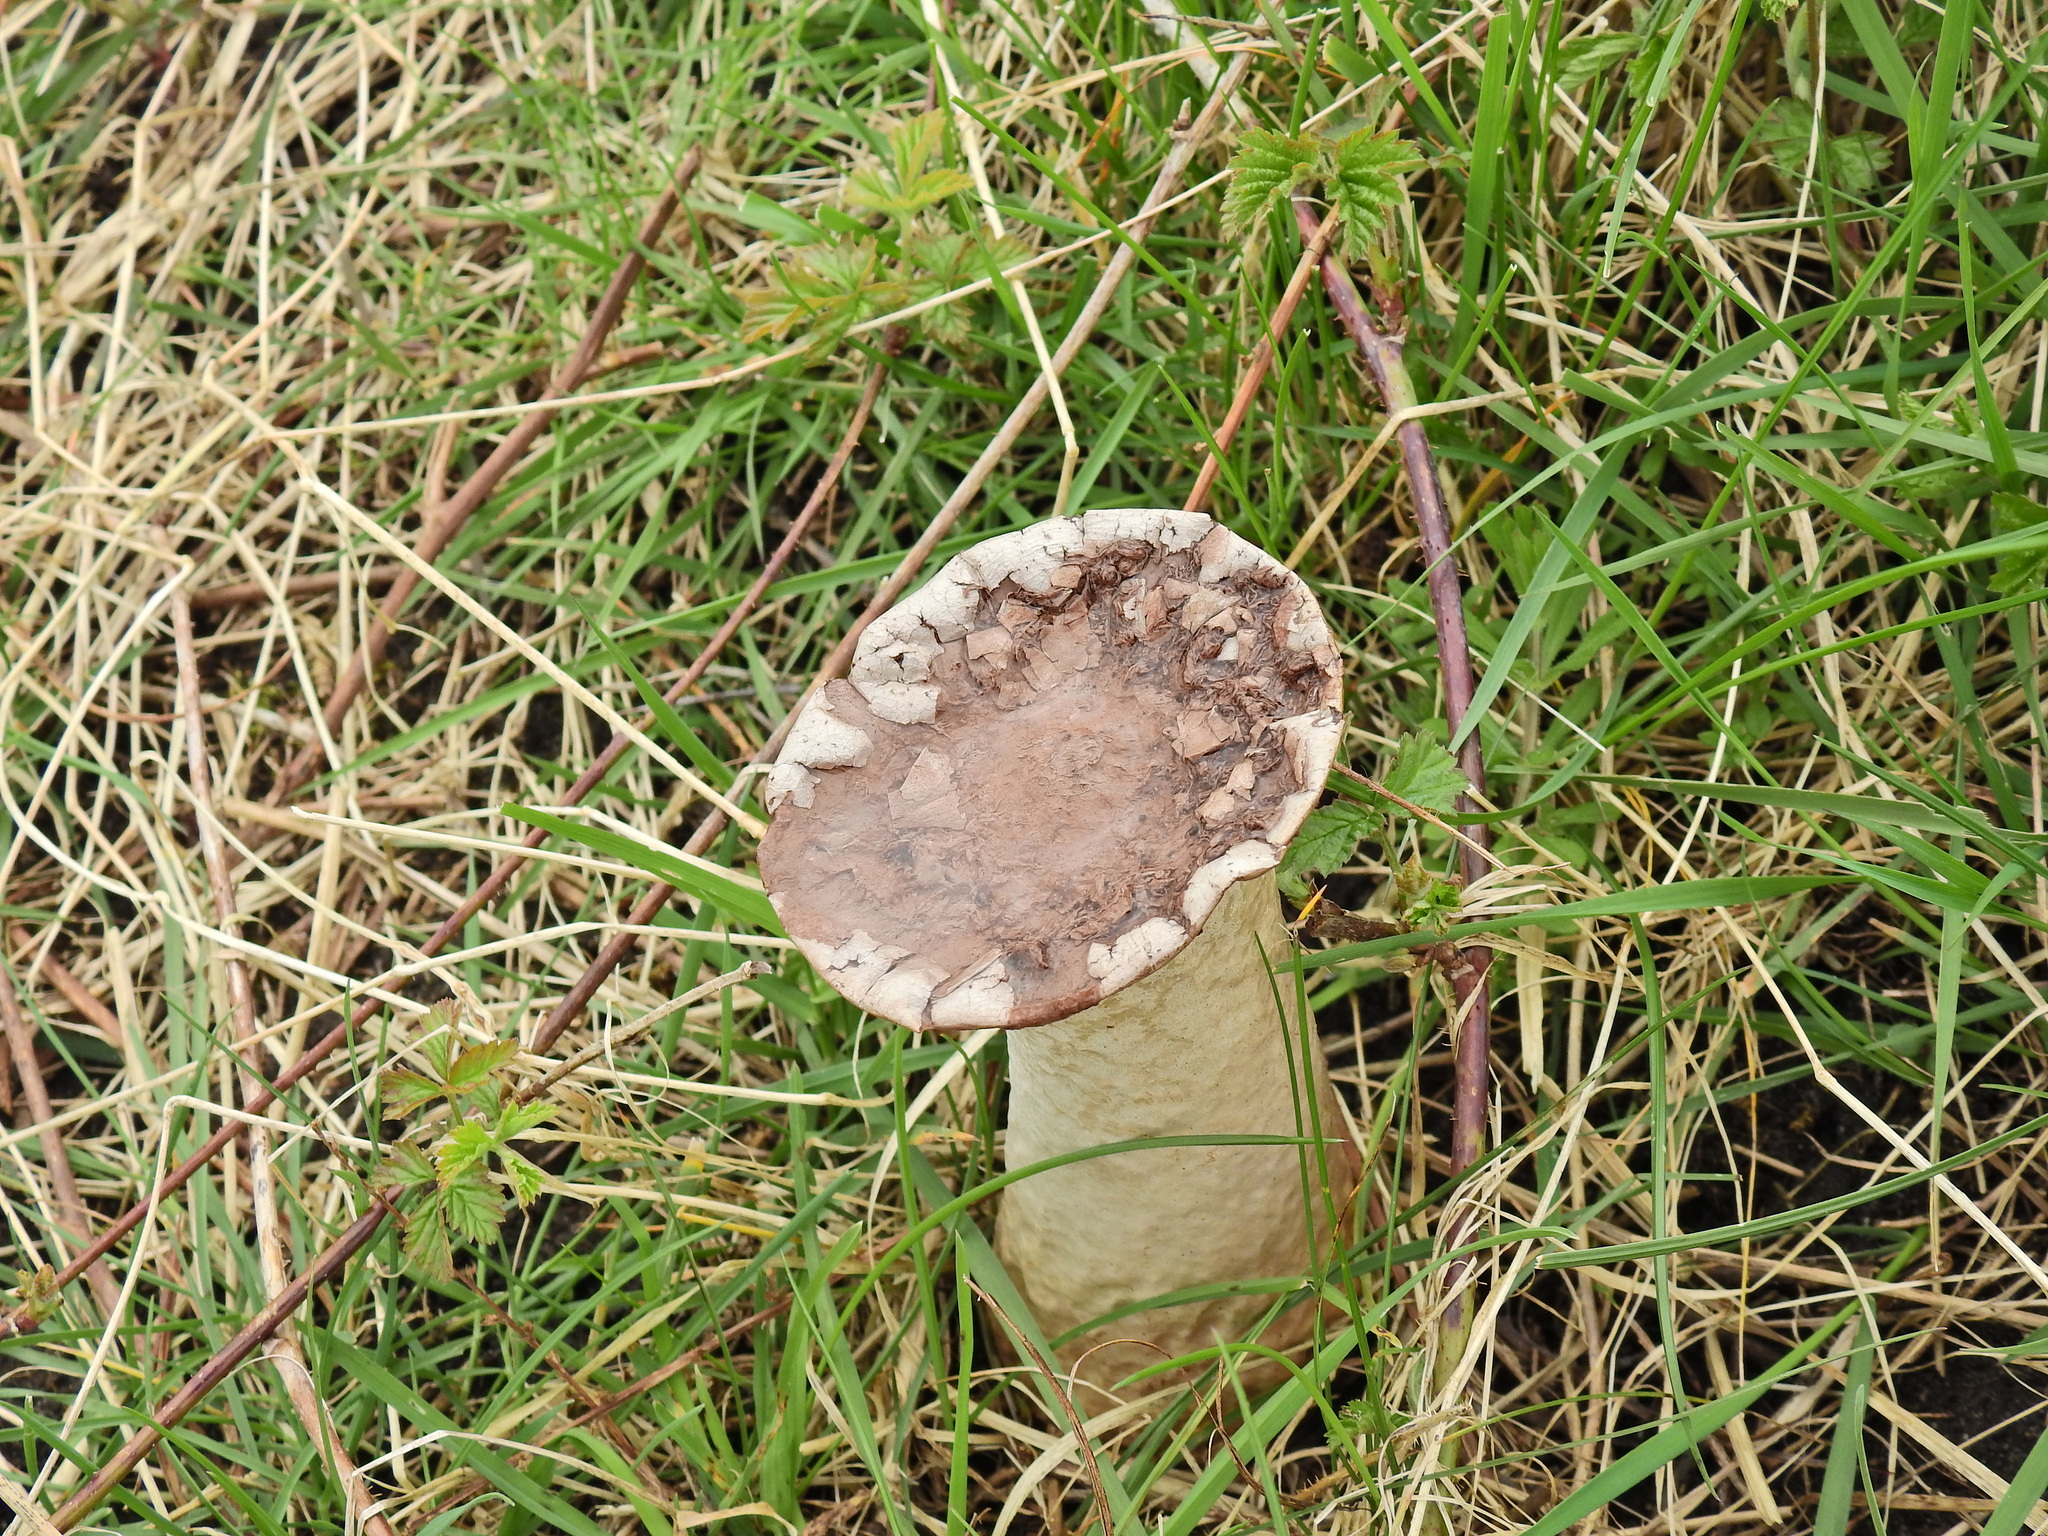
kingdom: Fungi
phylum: Basidiomycota
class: Agaricomycetes
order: Agaricales
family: Lycoperdaceae
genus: Lycoperdon
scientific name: Lycoperdon excipuliforme
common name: Pestle puffball
